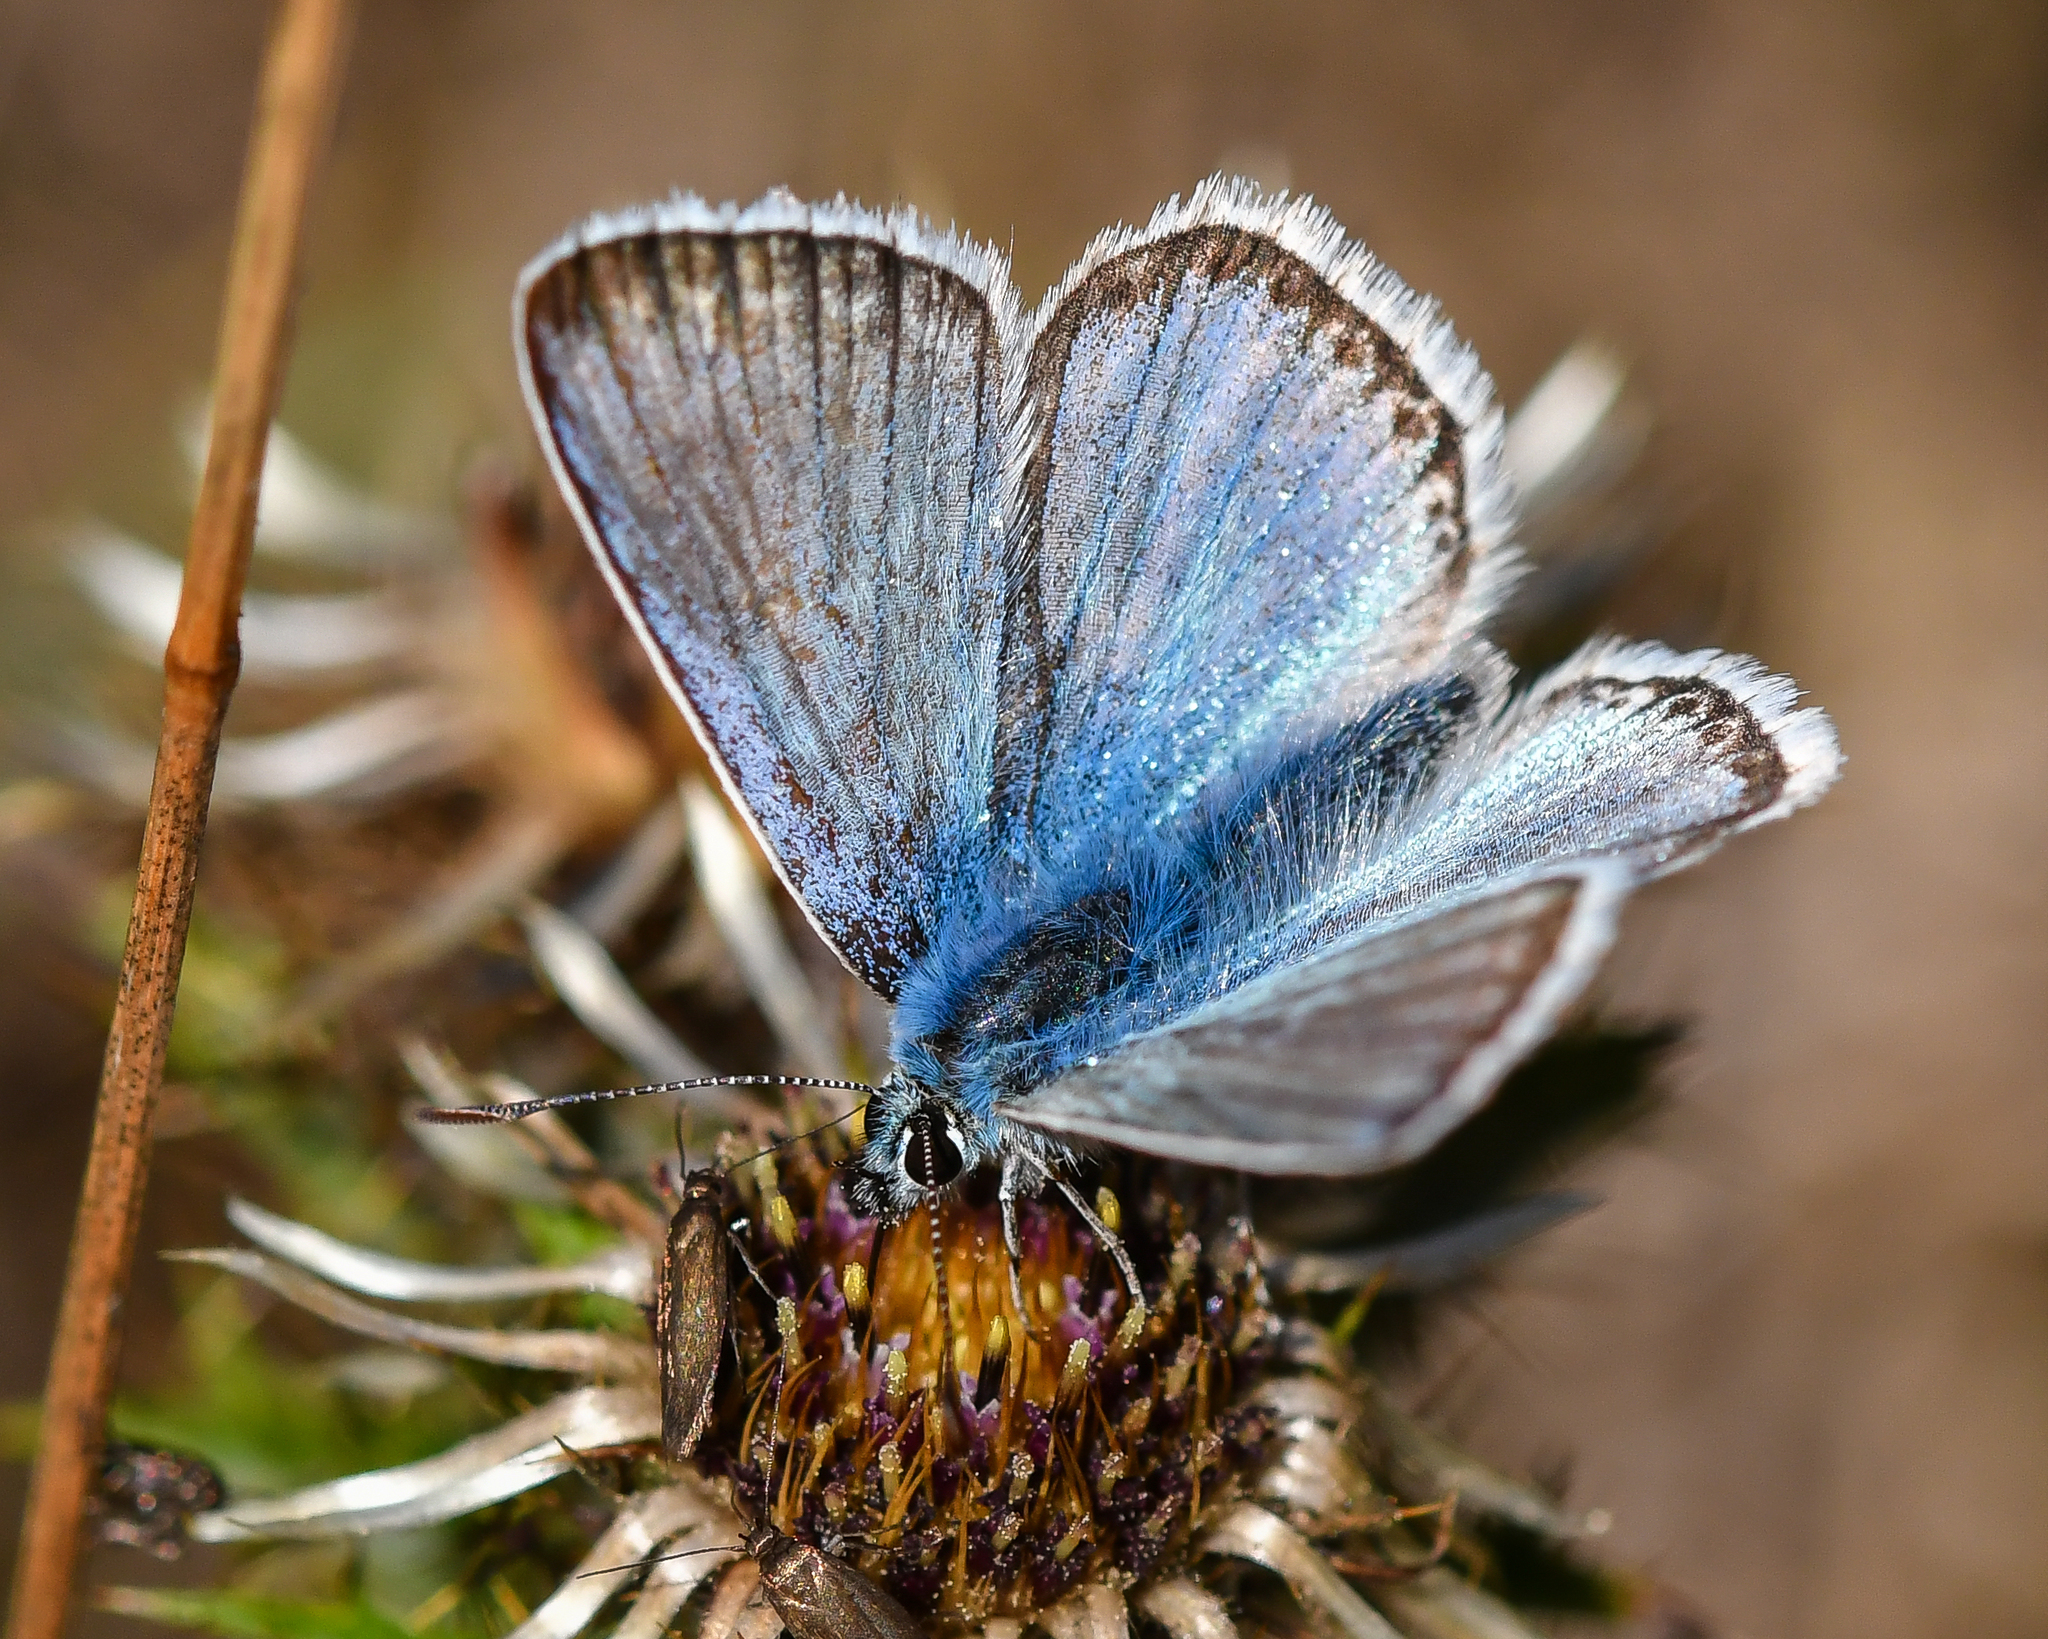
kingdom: Animalia
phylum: Arthropoda
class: Insecta
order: Lepidoptera
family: Lycaenidae
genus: Lysandra
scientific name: Lysandra coridon
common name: Chalkhill blue
